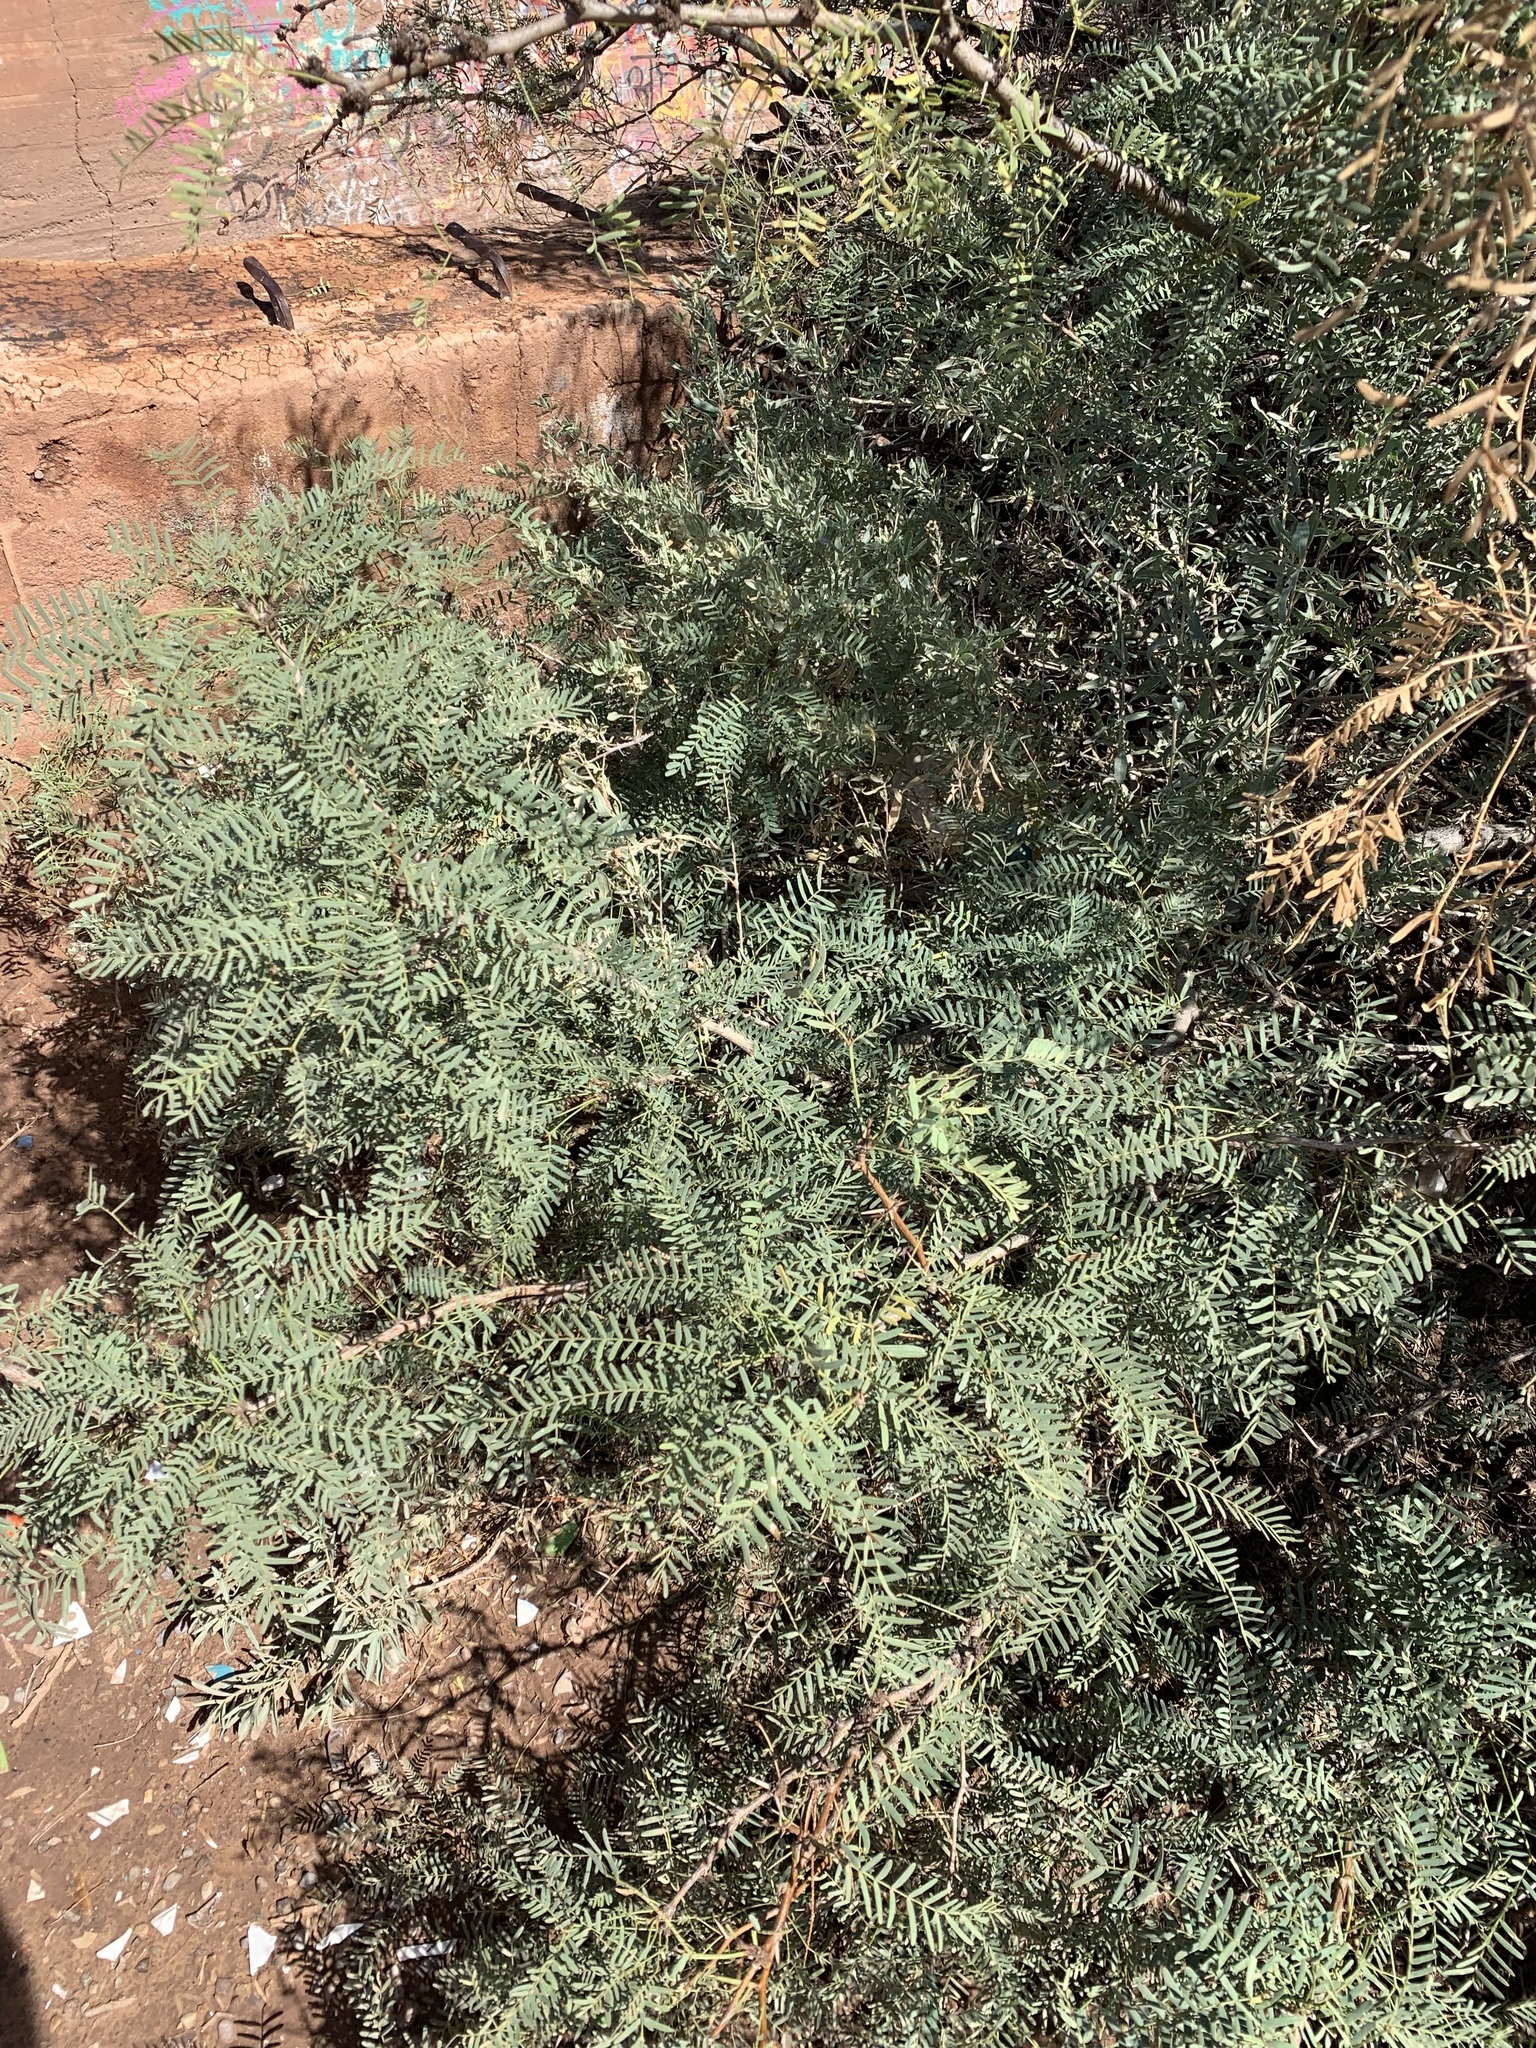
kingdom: Plantae
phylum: Tracheophyta
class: Magnoliopsida
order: Fabales
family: Fabaceae
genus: Prosopis
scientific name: Prosopis glandulosa
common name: Honey mesquite
